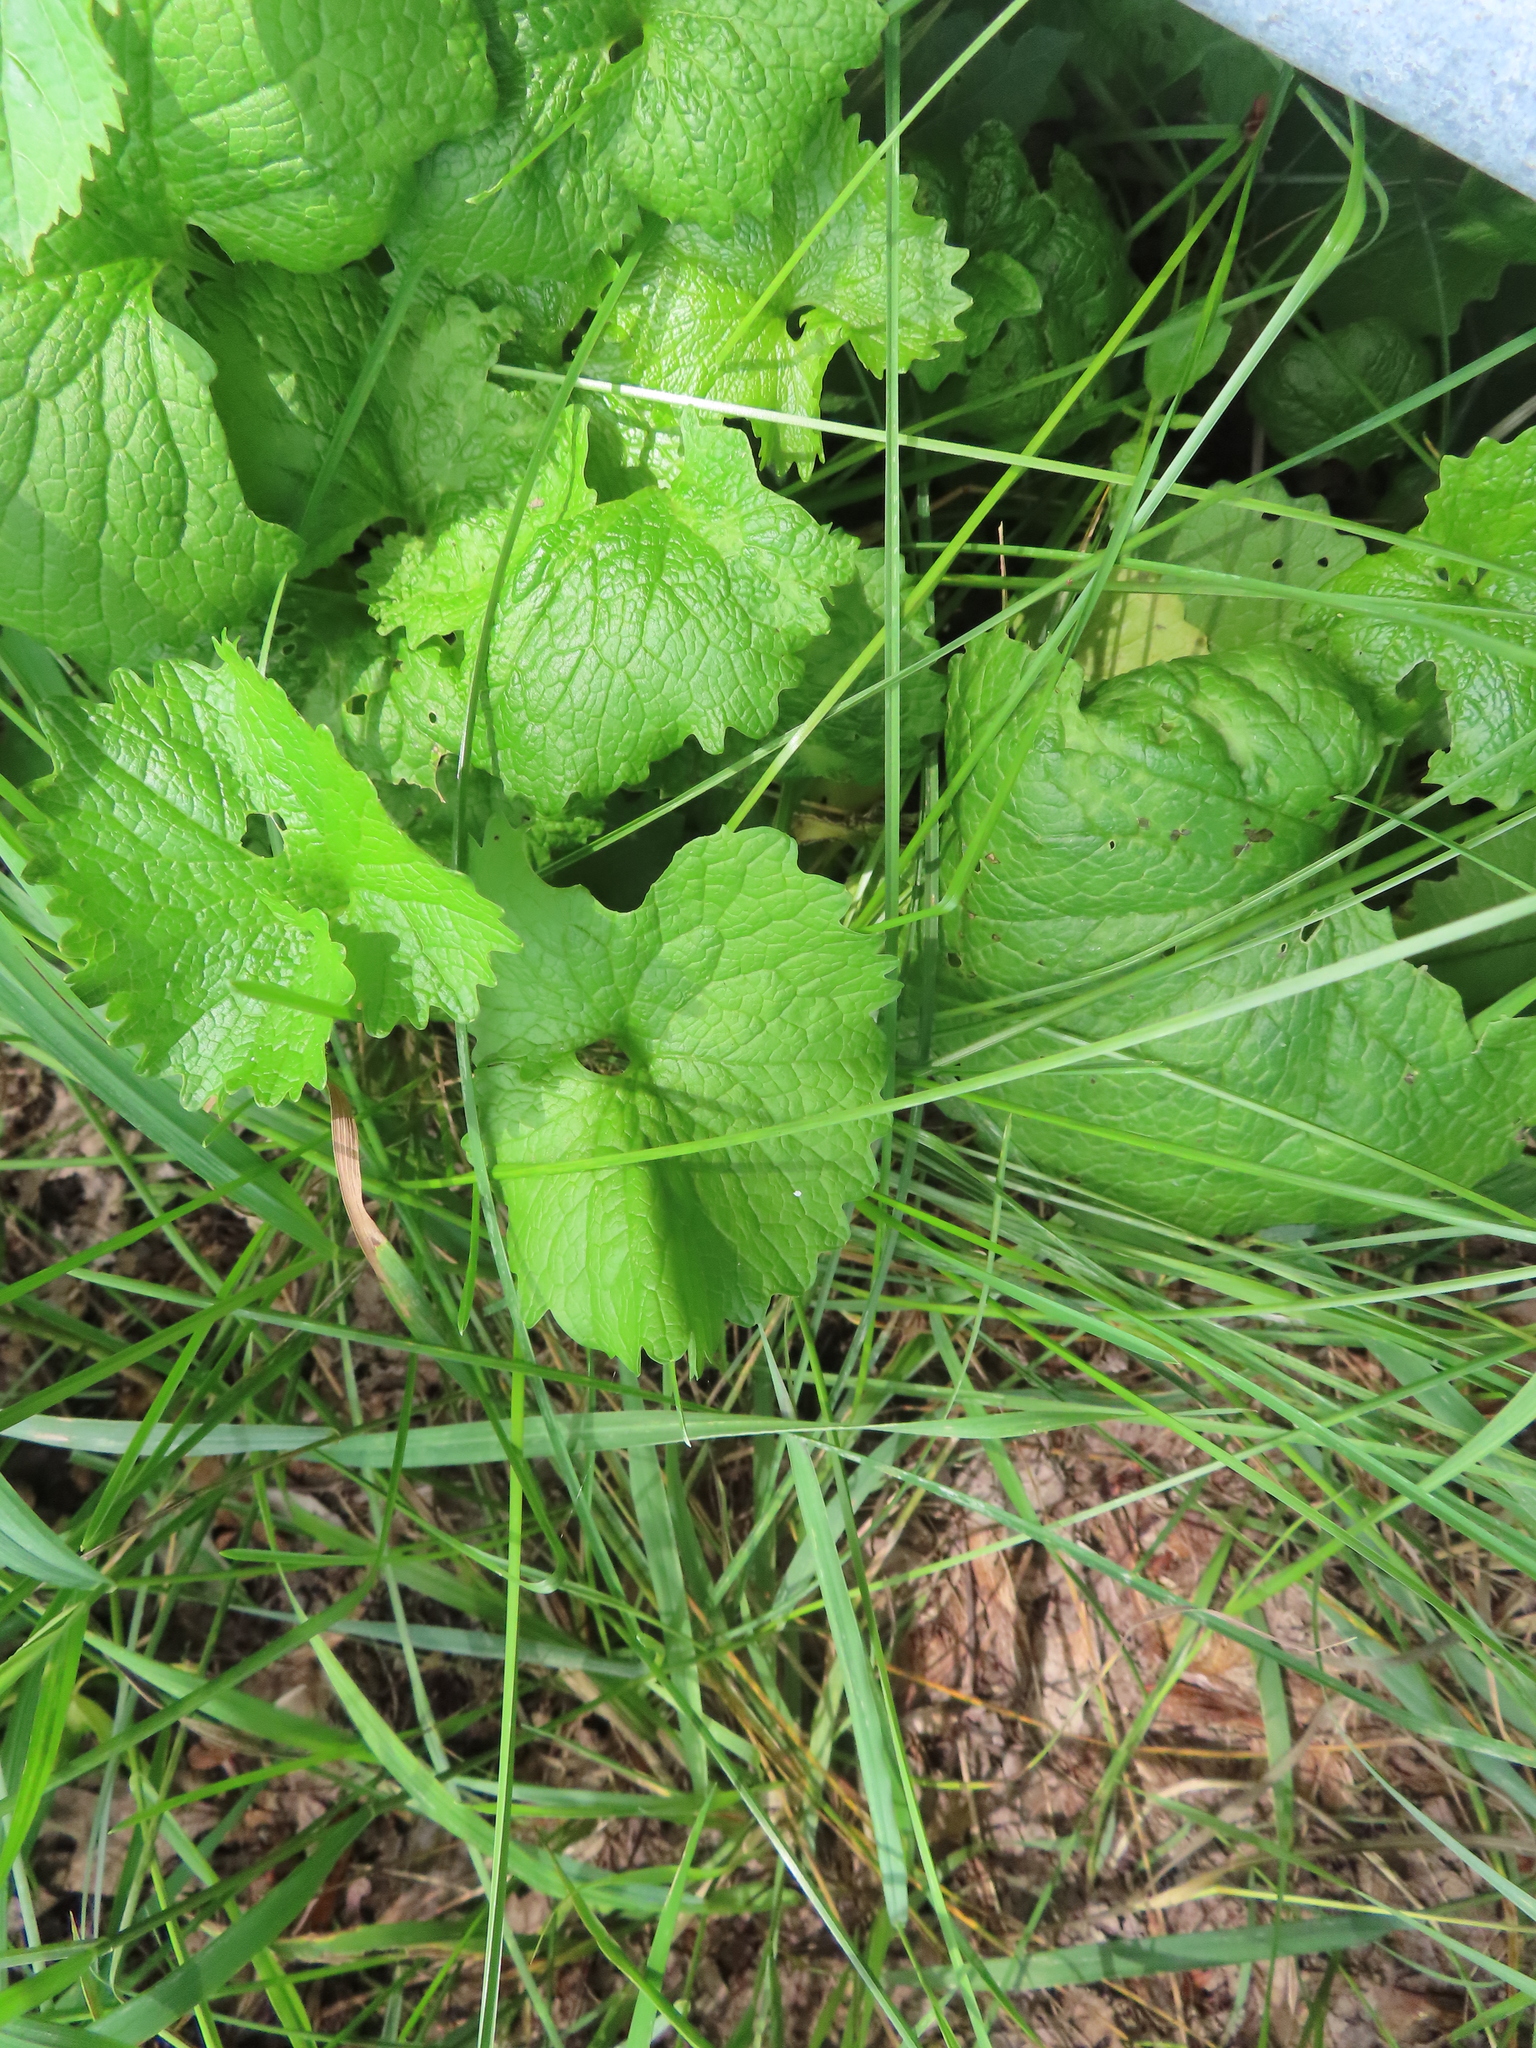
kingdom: Plantae
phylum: Tracheophyta
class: Magnoliopsida
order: Brassicales
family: Brassicaceae
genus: Alliaria
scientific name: Alliaria petiolata
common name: Garlic mustard
